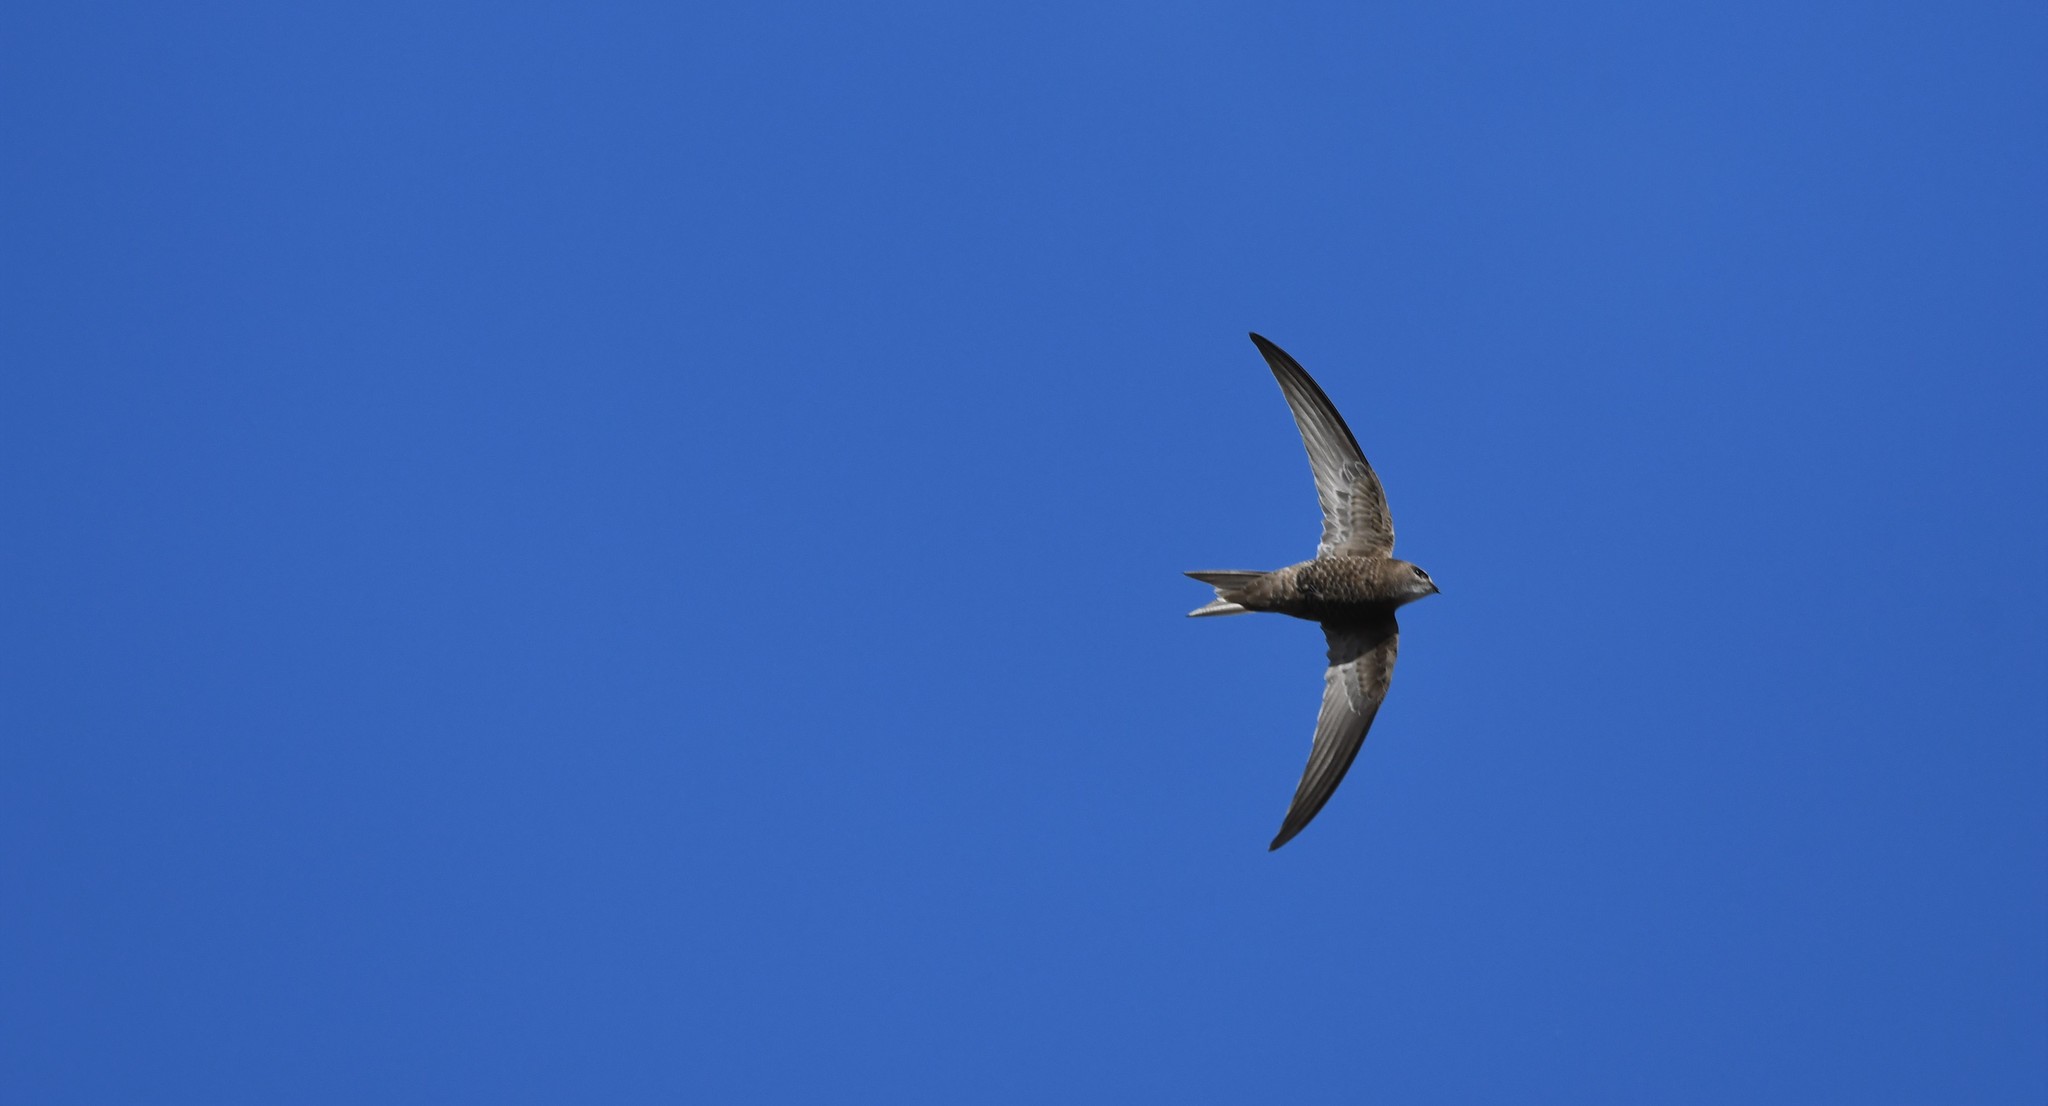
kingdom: Animalia
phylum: Chordata
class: Aves
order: Apodiformes
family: Apodidae
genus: Apus
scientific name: Apus pallidus
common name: Pallid swift
